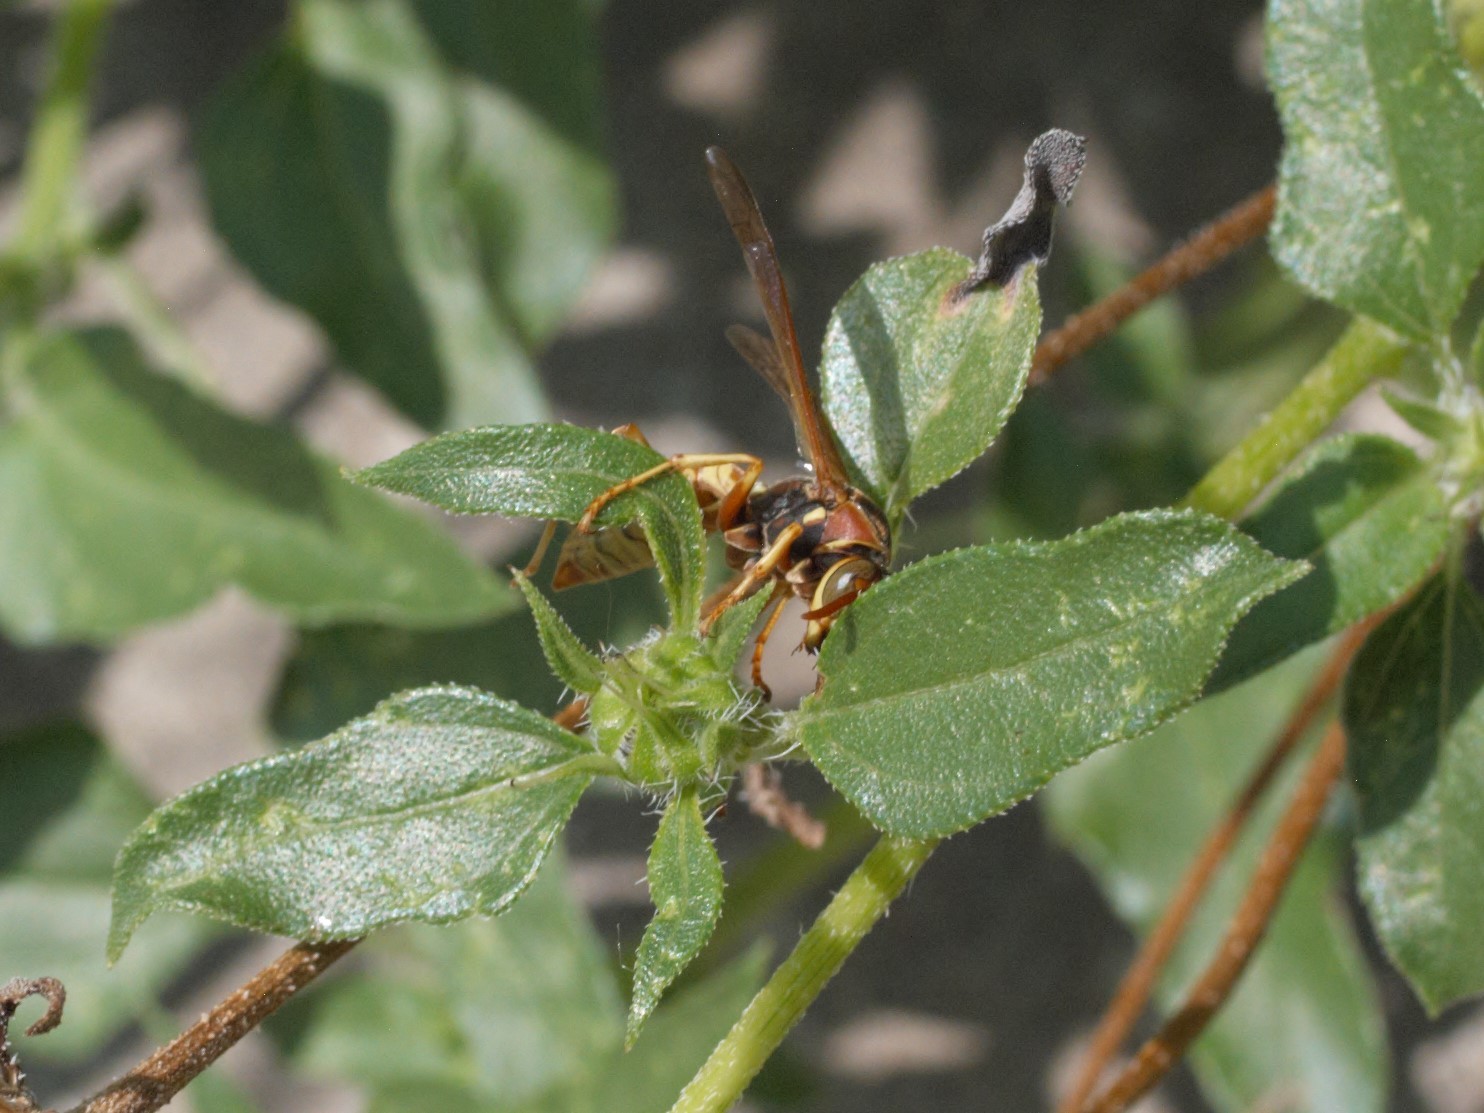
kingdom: Animalia
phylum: Arthropoda
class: Insecta
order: Hymenoptera
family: Eumenidae
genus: Polistes
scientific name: Polistes aurifer
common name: Paper wasp
